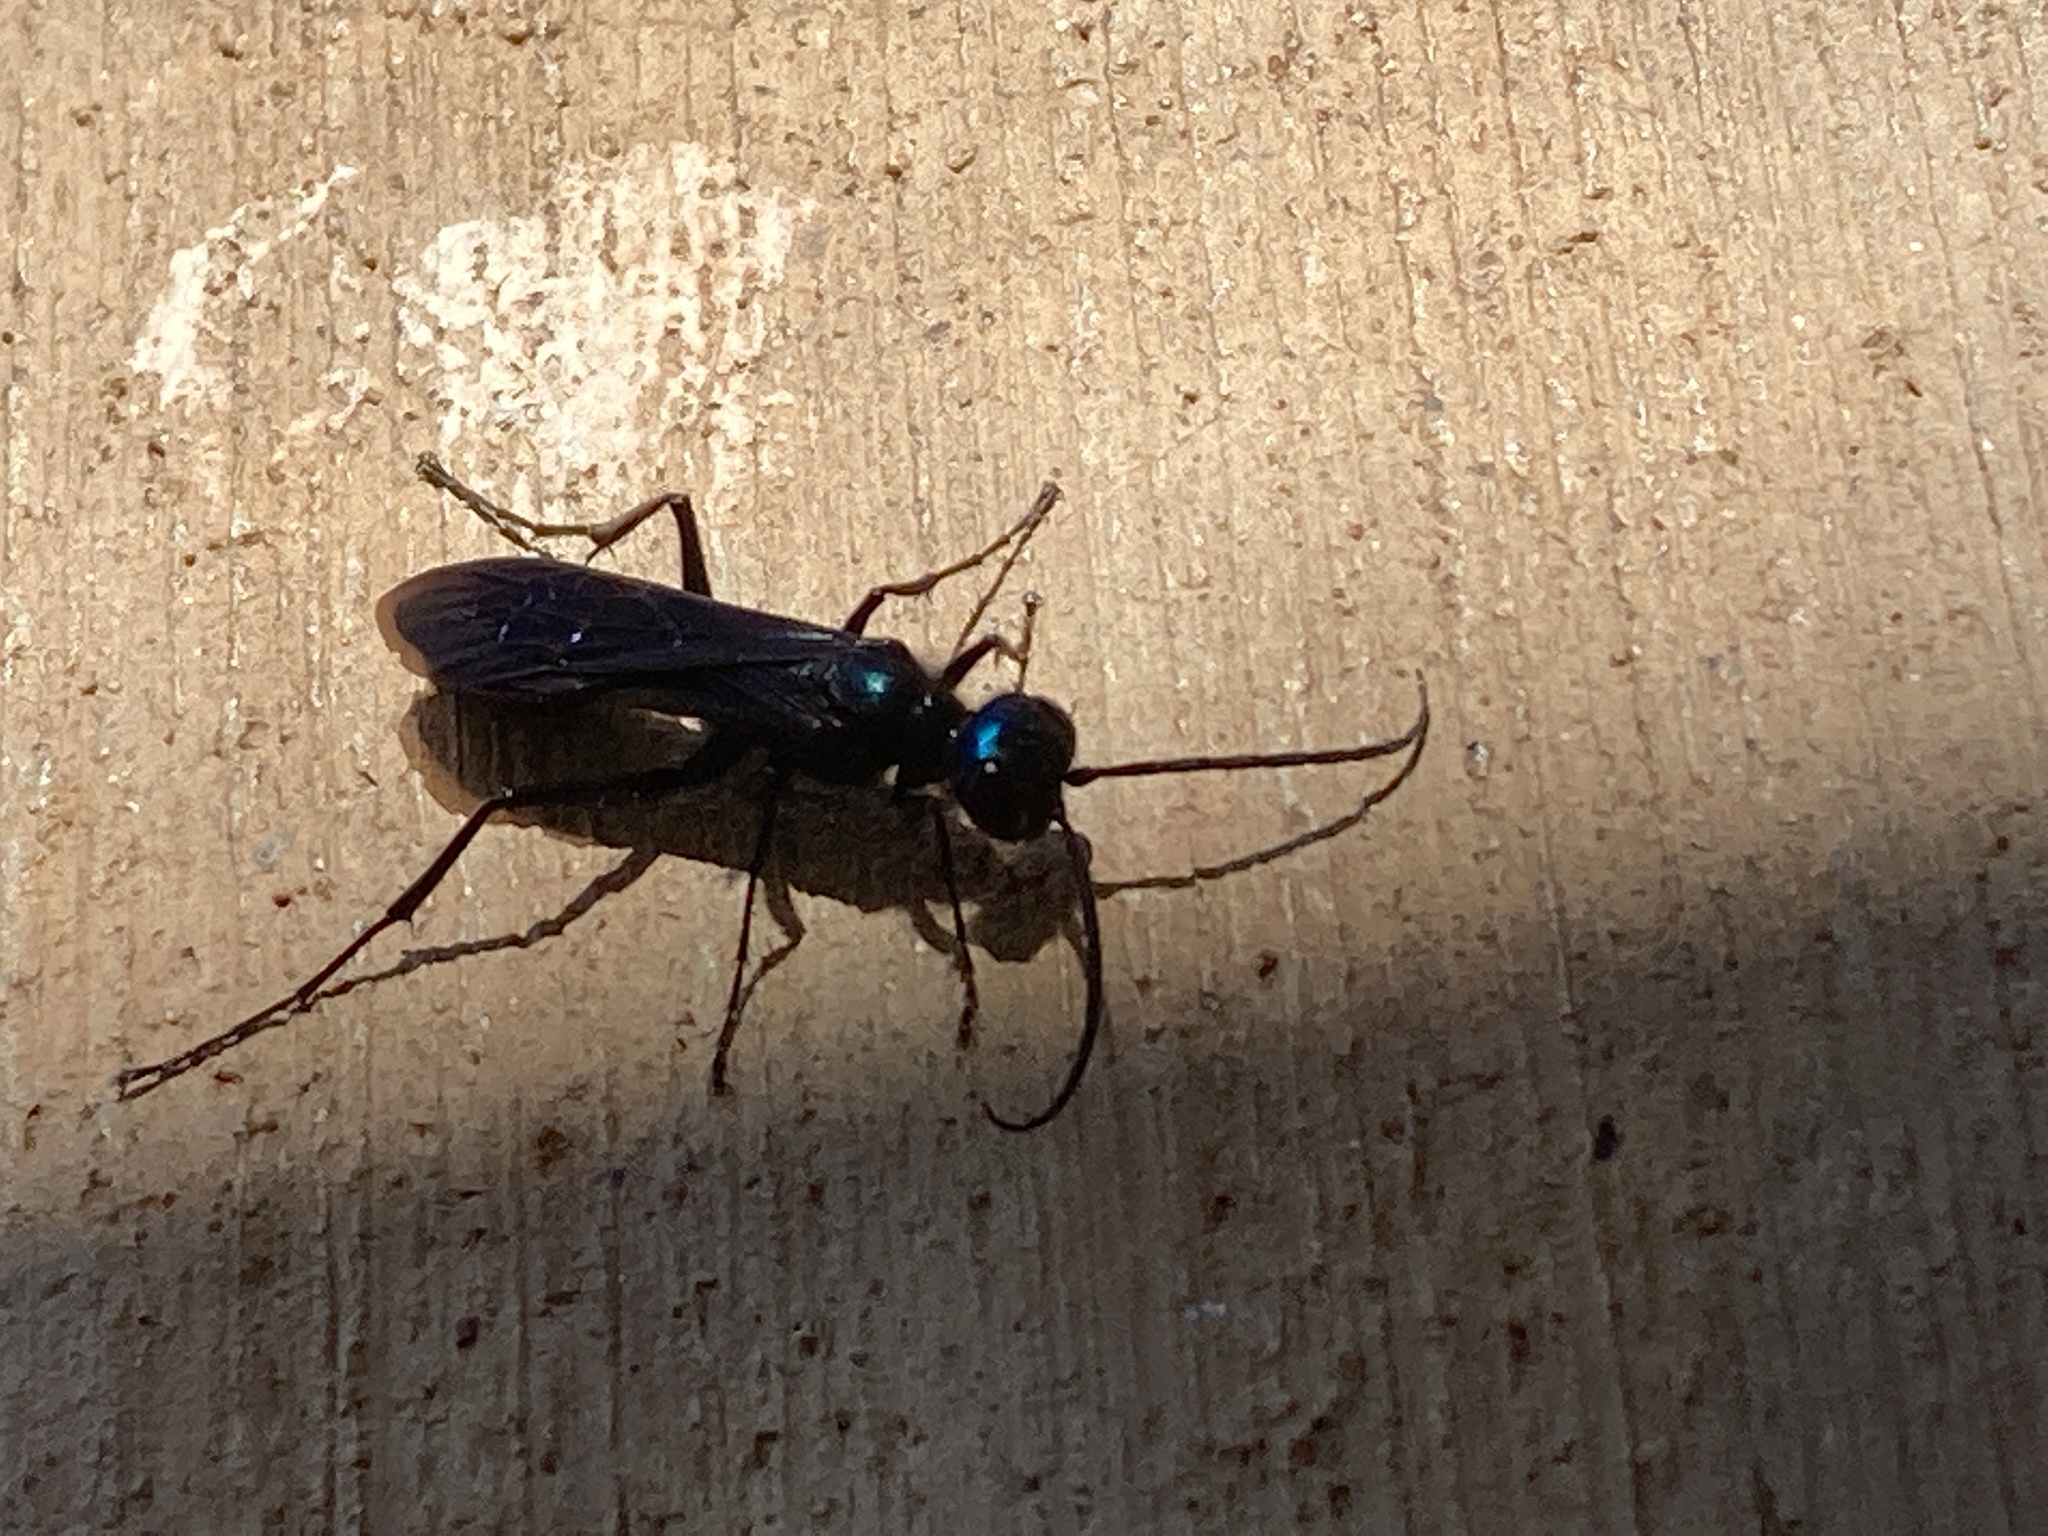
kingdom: Animalia
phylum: Arthropoda
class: Insecta
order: Hymenoptera
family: Sphecidae
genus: Chlorion
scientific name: Chlorion aerarium
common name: Steel-blue cricket hunter
